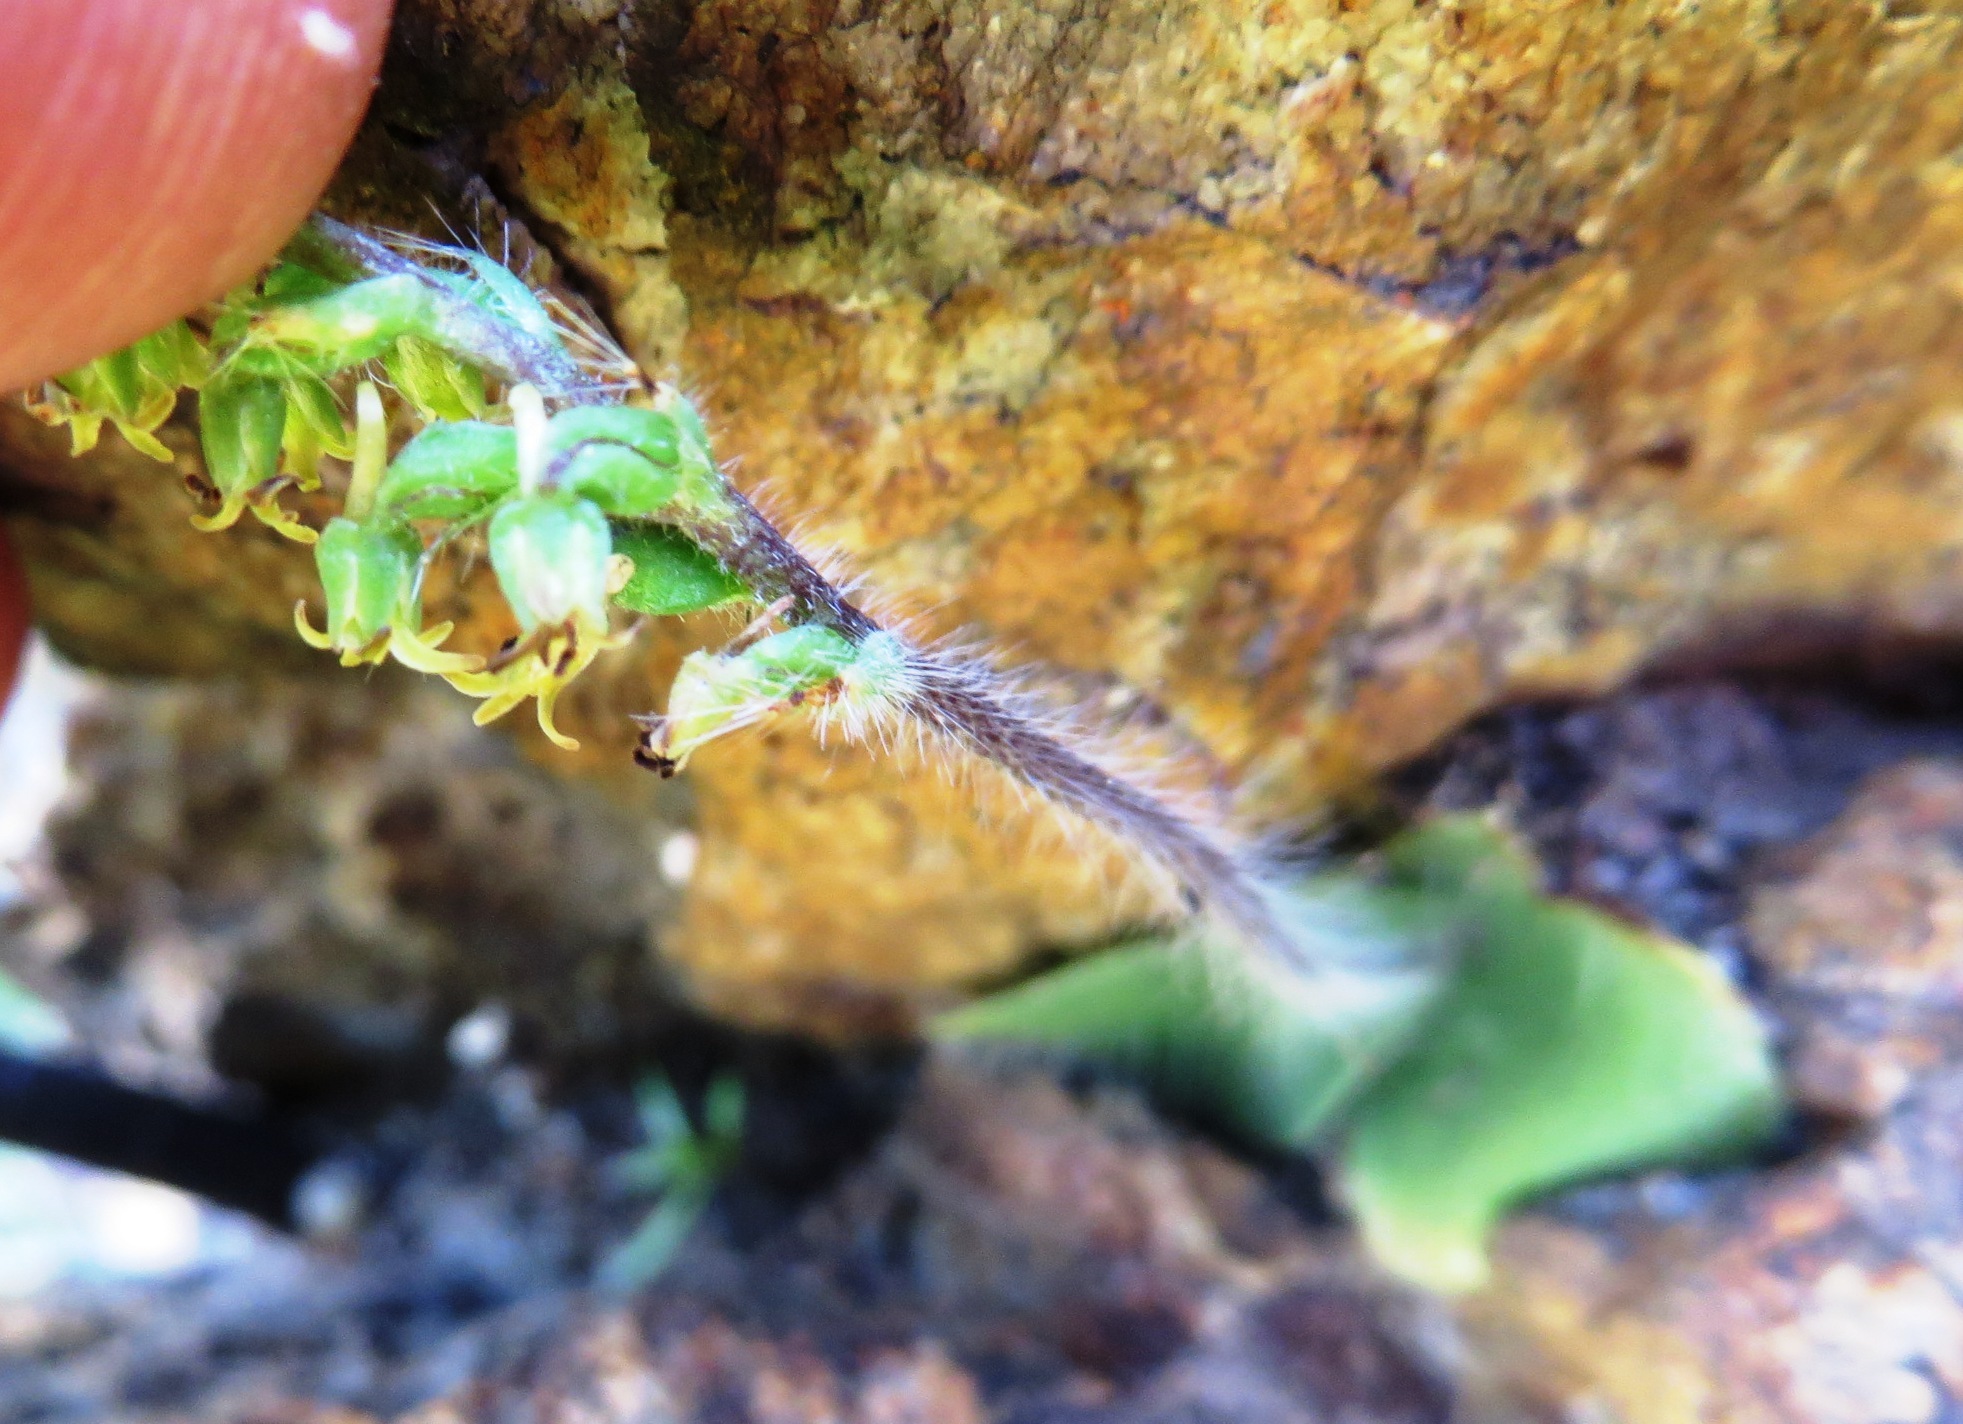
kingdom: Plantae
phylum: Tracheophyta
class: Liliopsida
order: Asparagales
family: Orchidaceae
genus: Holothrix
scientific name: Holothrix villosa
